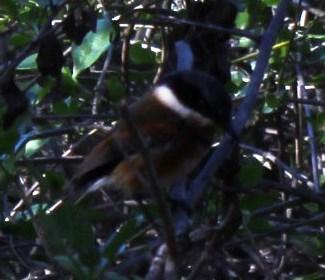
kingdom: Animalia
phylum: Chordata
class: Aves
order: Passeriformes
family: Platysteiridae
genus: Batis
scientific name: Batis capensis
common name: Cape batis
